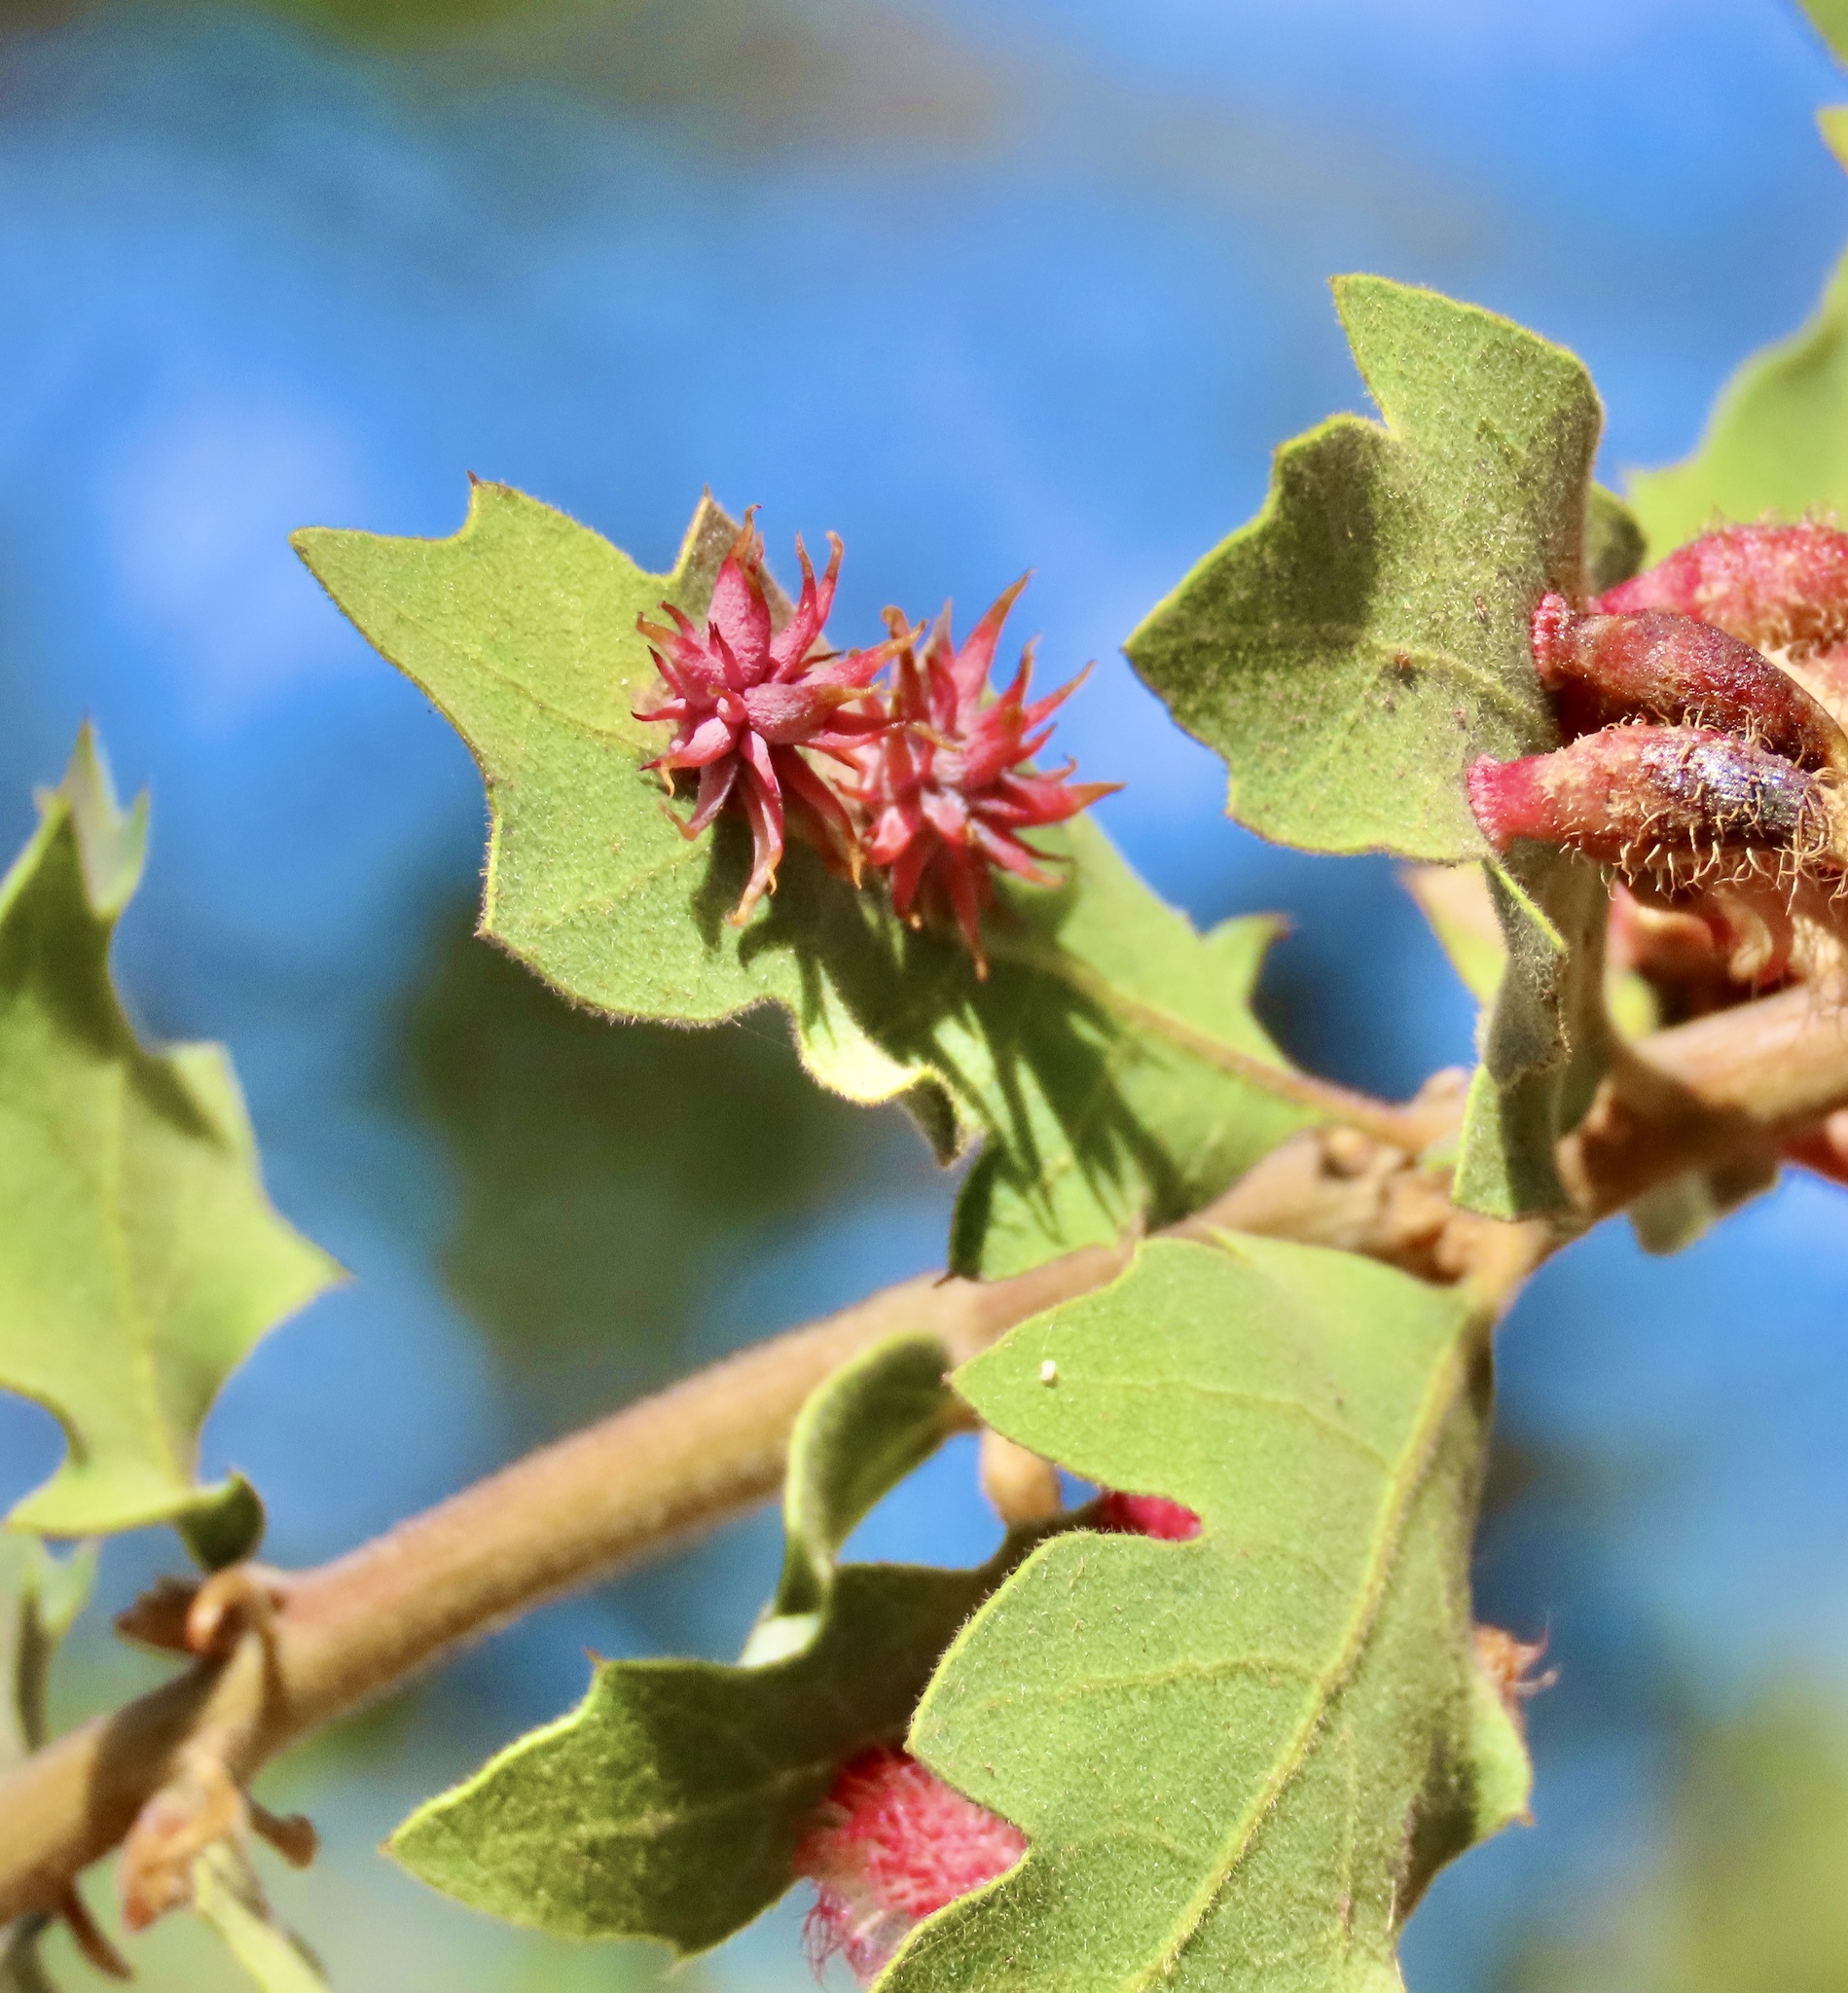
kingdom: Animalia
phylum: Arthropoda
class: Insecta
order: Hymenoptera
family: Cynipidae
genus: Cynips
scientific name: Cynips
